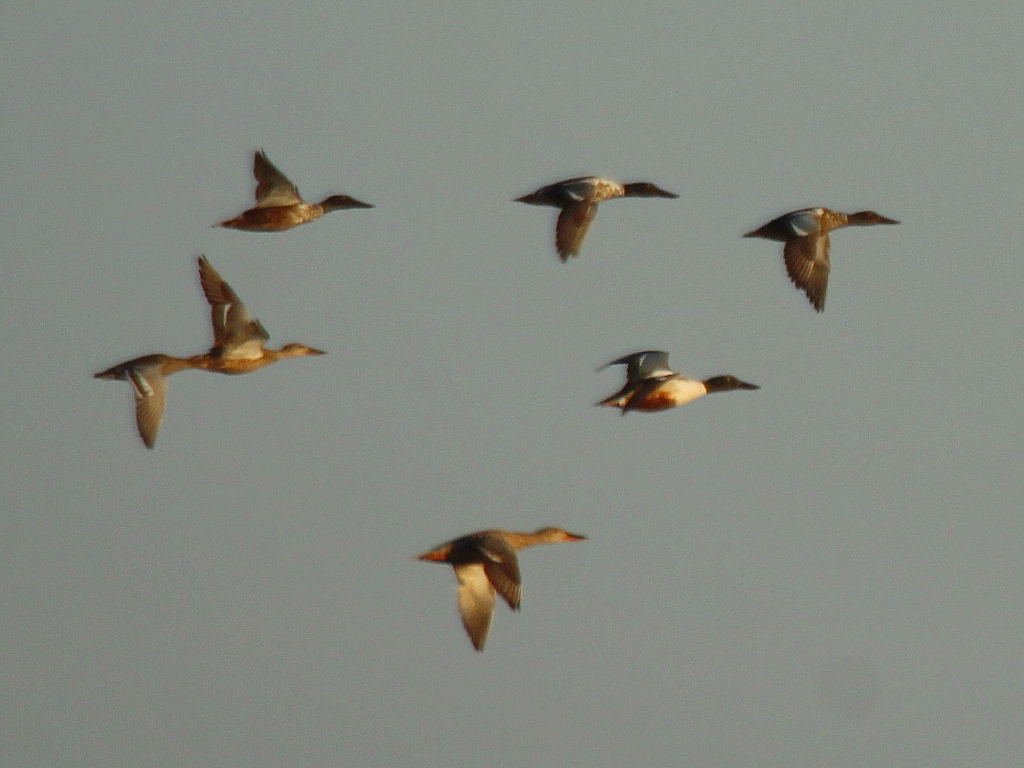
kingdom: Animalia
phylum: Chordata
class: Aves
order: Anseriformes
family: Anatidae
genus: Spatula
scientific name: Spatula clypeata
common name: Northern shoveler
